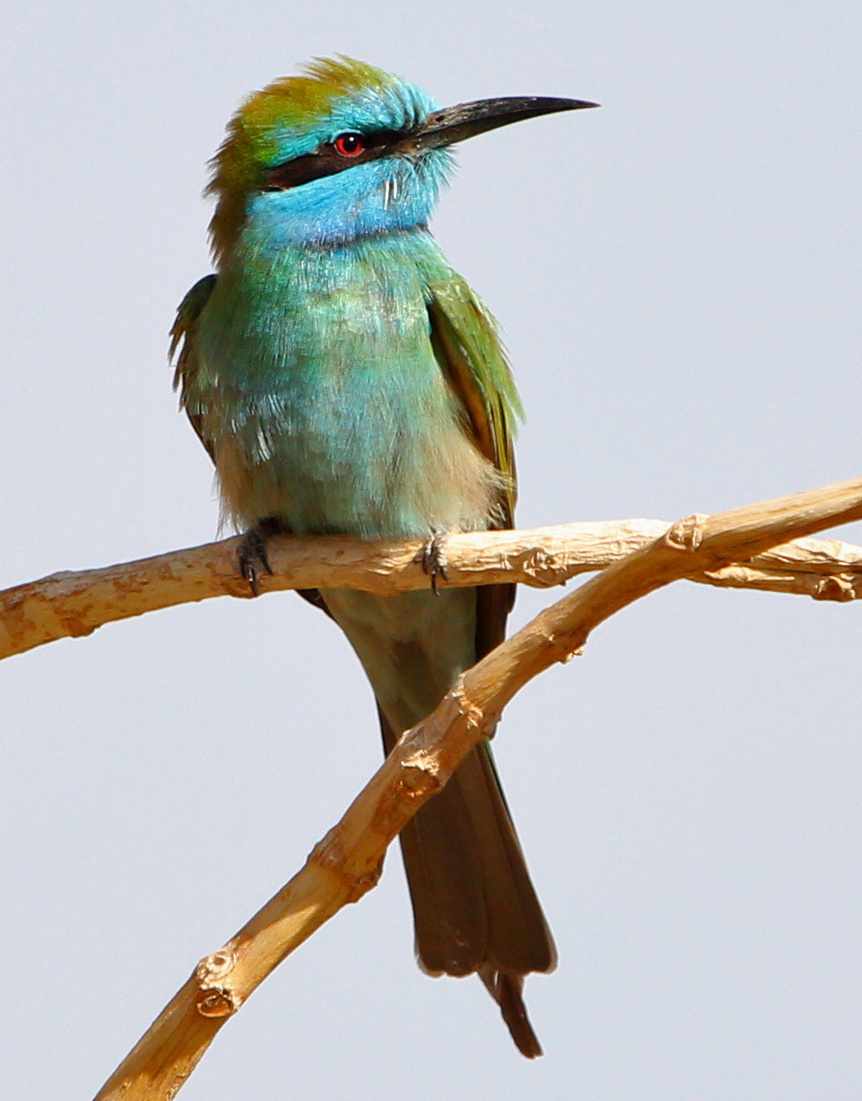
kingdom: Animalia
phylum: Chordata
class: Aves
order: Coraciiformes
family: Meropidae
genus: Merops
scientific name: Merops cyanophrys
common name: Arabian green bee-eater
